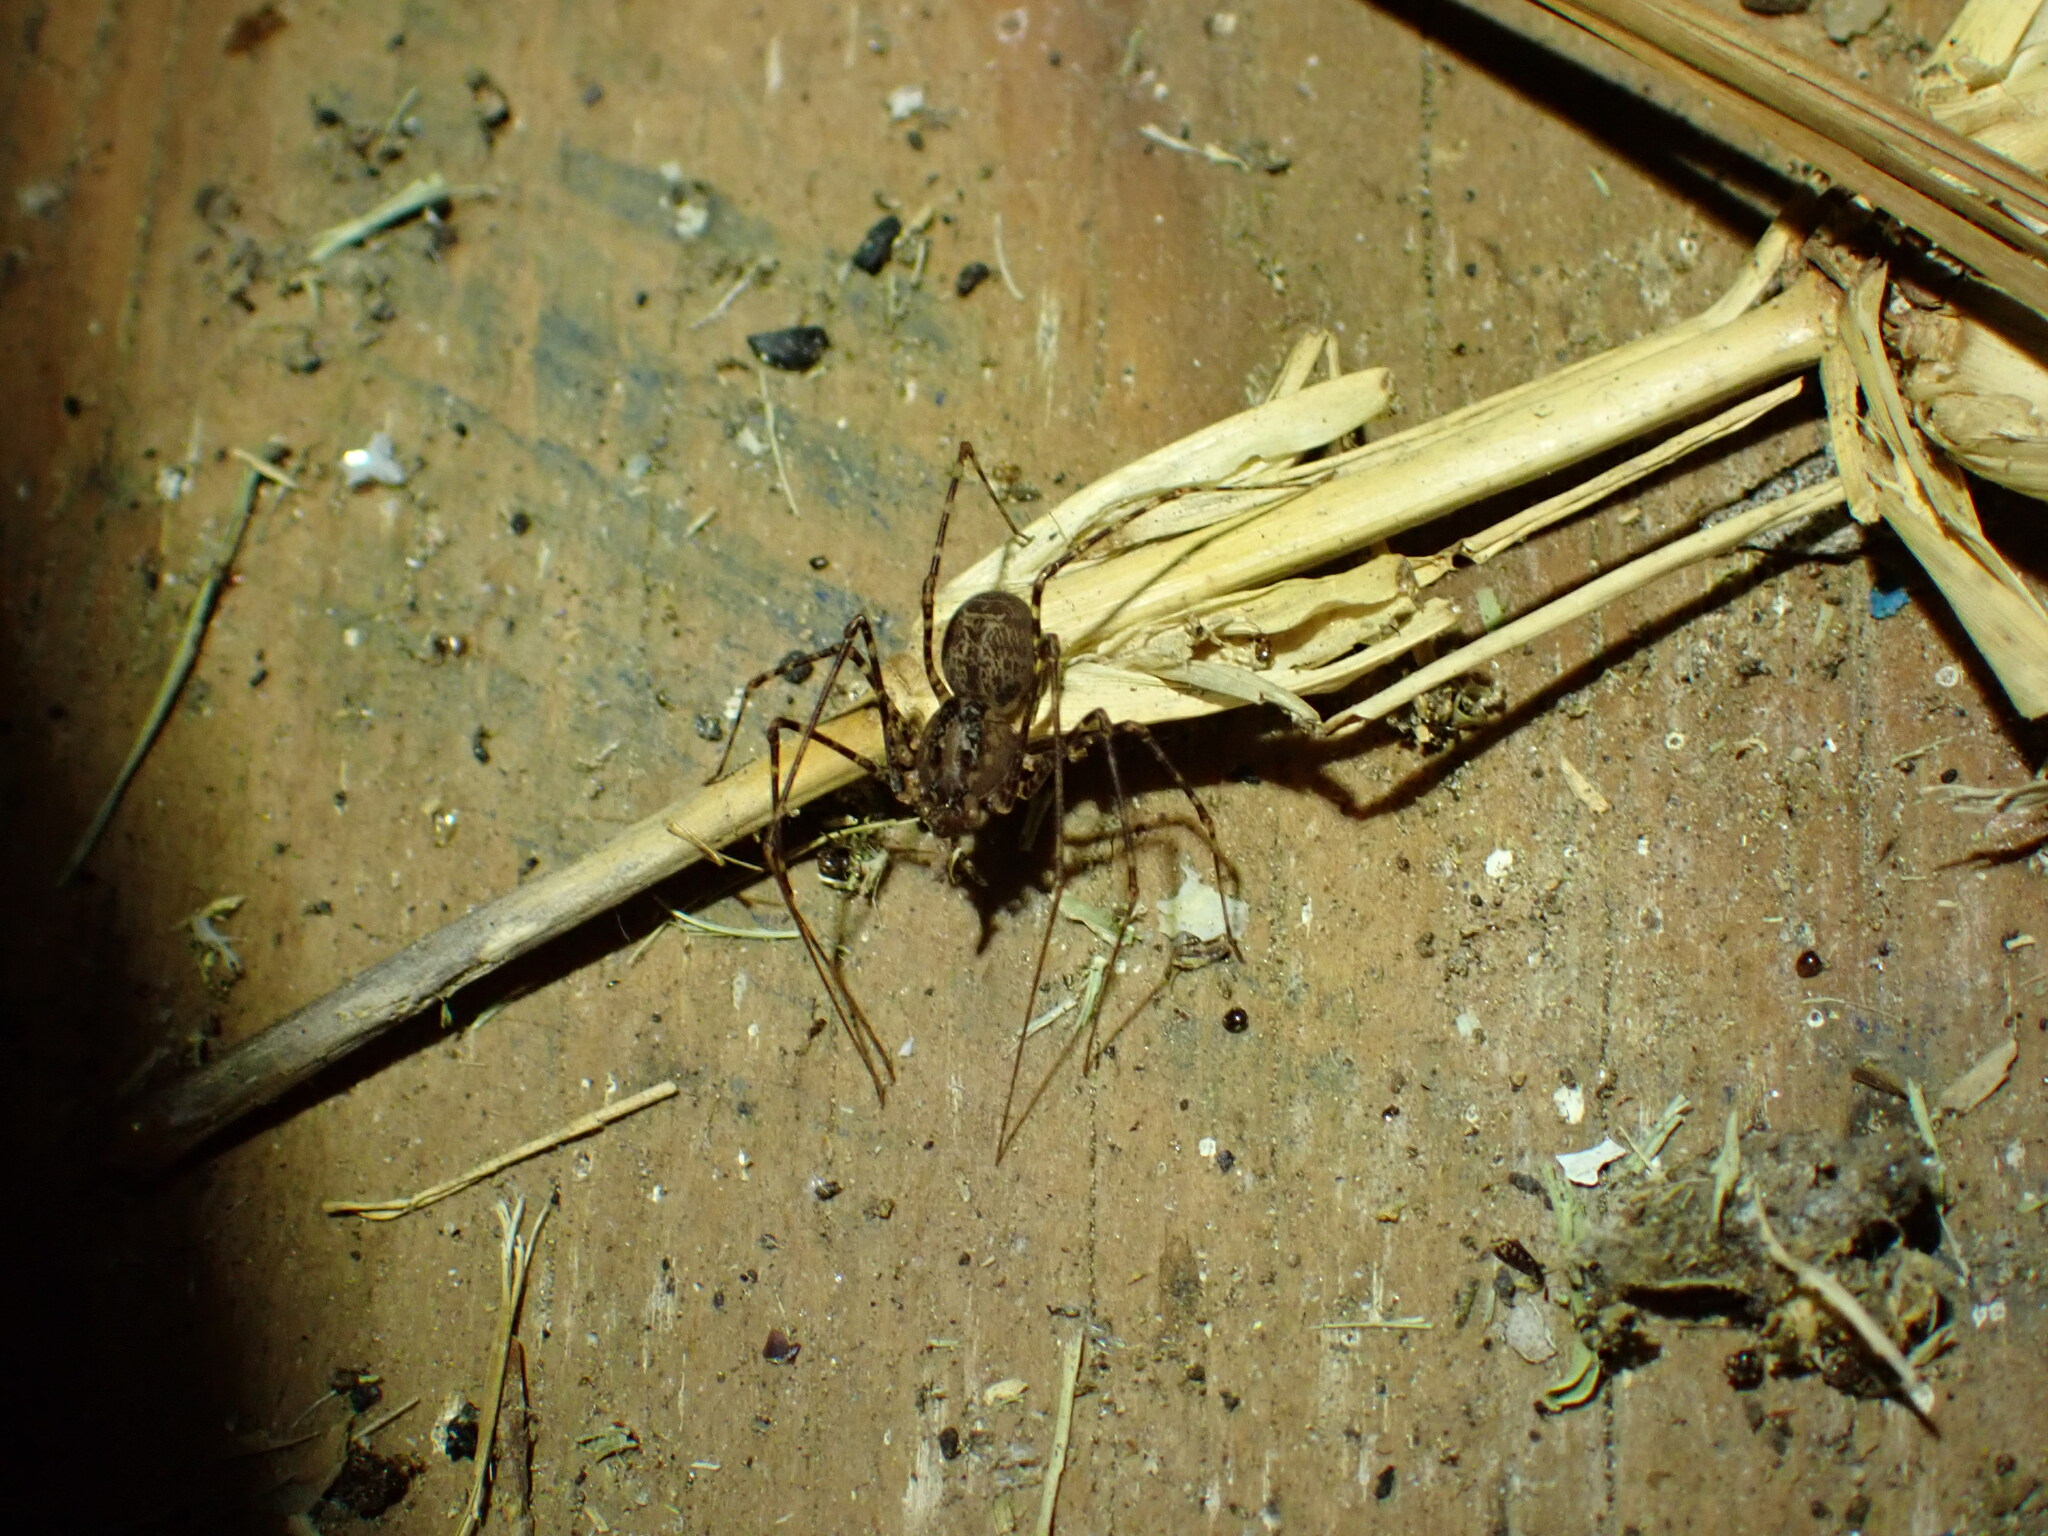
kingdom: Animalia
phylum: Arthropoda
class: Arachnida
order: Araneae
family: Scytodidae
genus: Scytodes
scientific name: Scytodes globula
